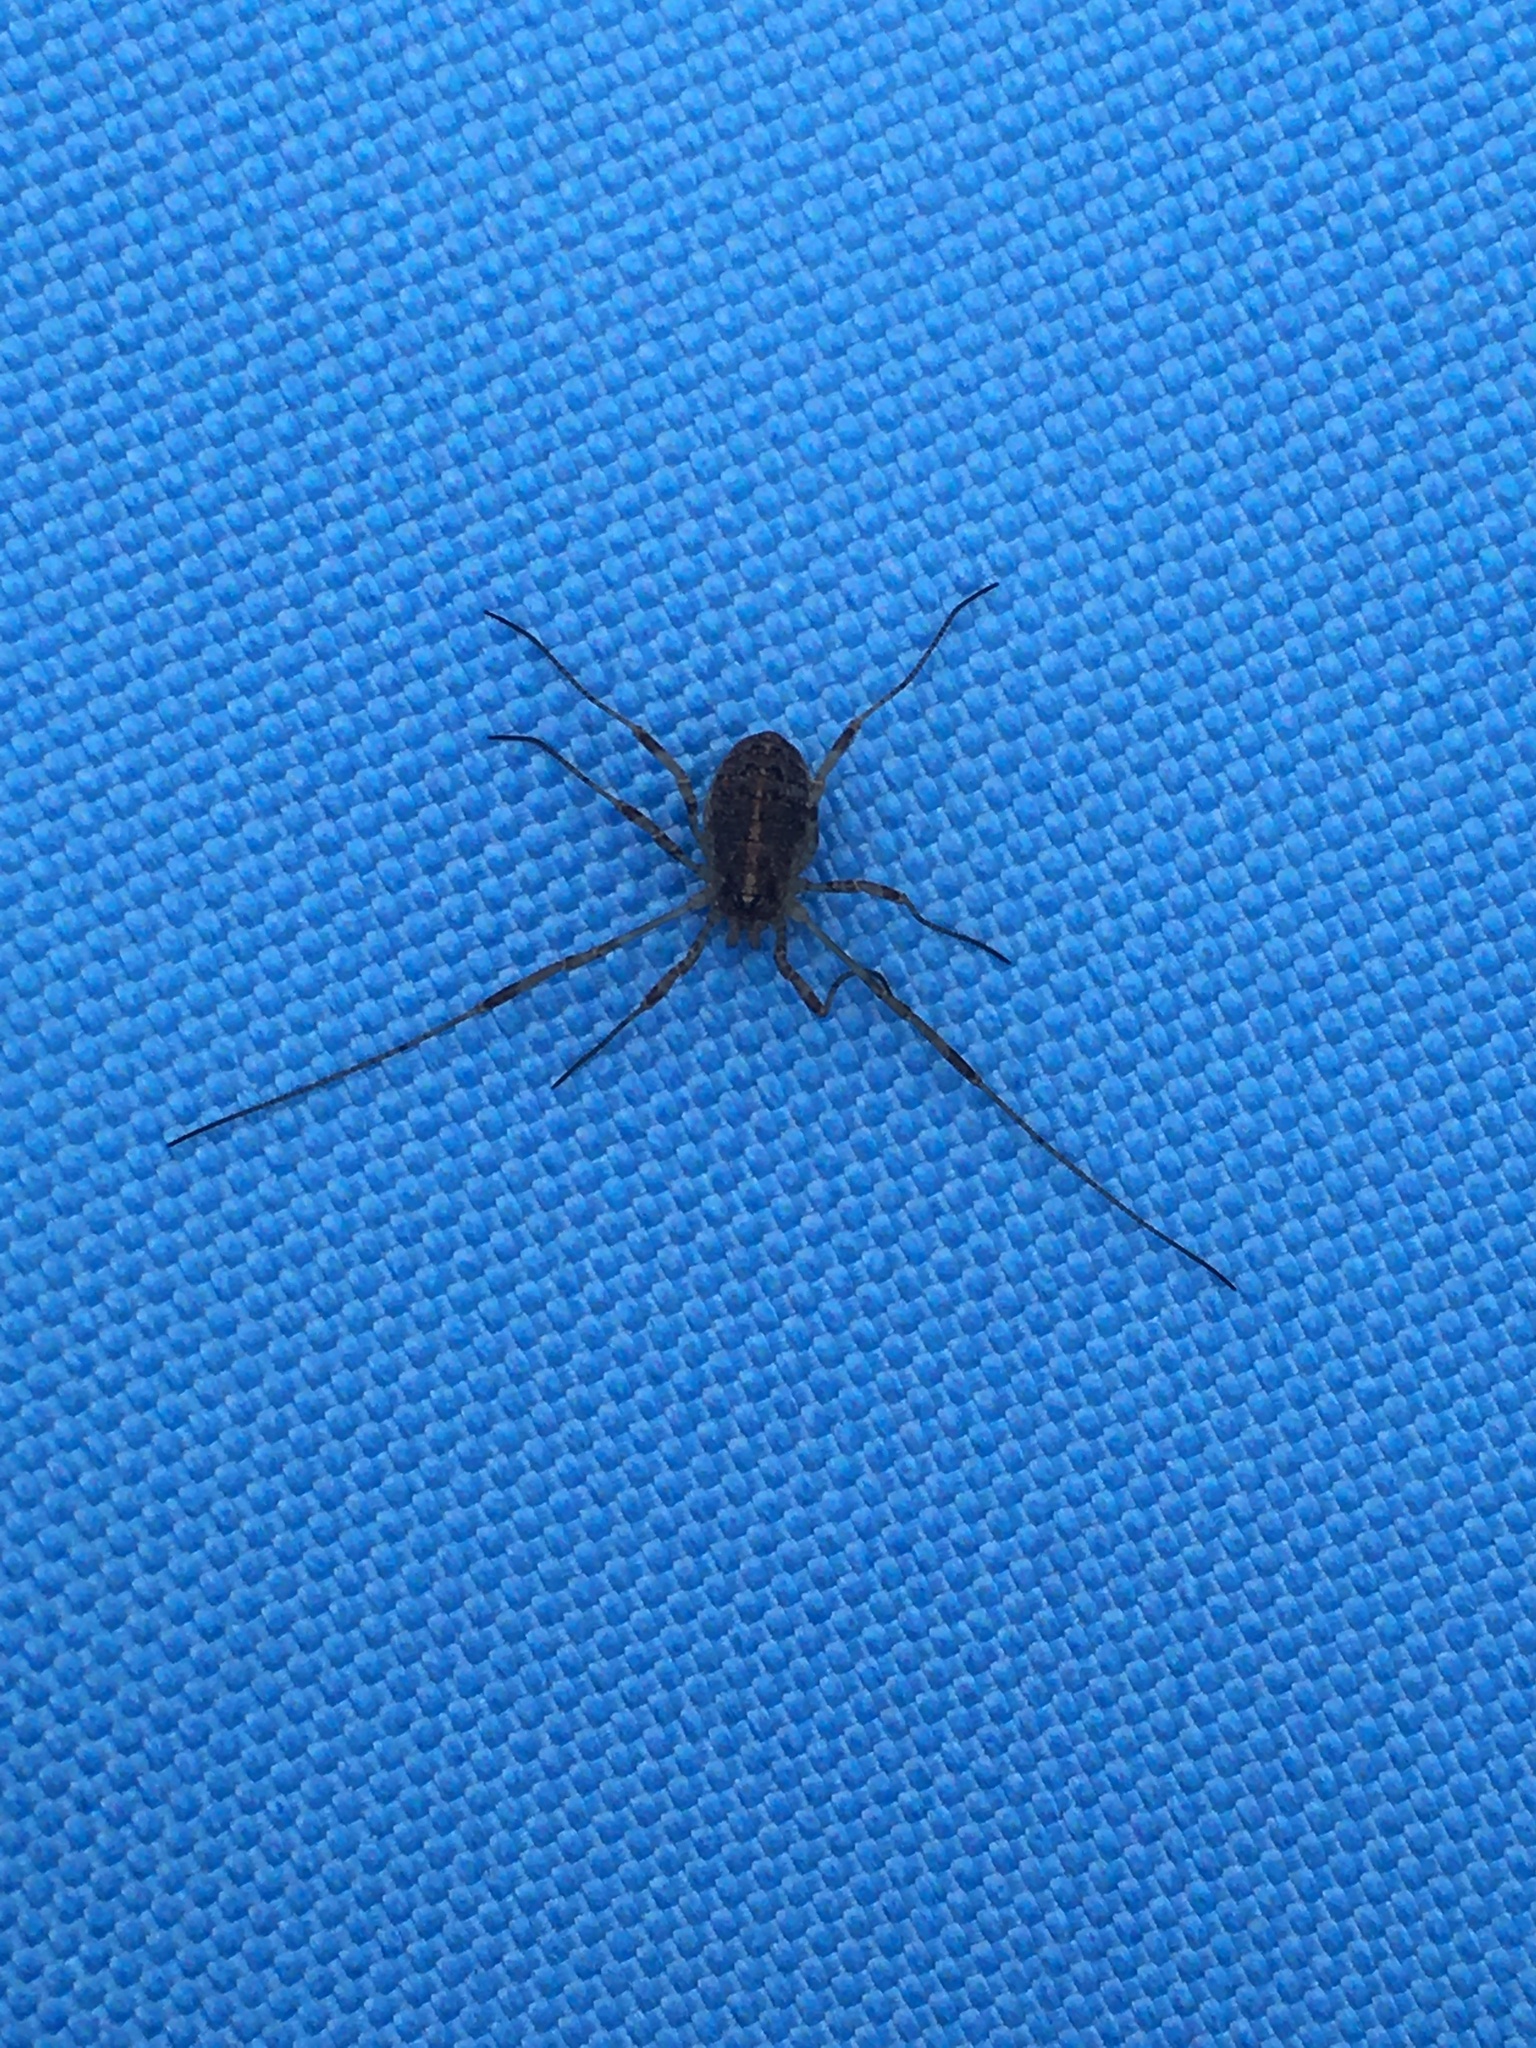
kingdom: Animalia
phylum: Arthropoda
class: Arachnida
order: Opiliones
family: Phalangiidae
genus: Paroligolophus
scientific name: Paroligolophus agrestis
